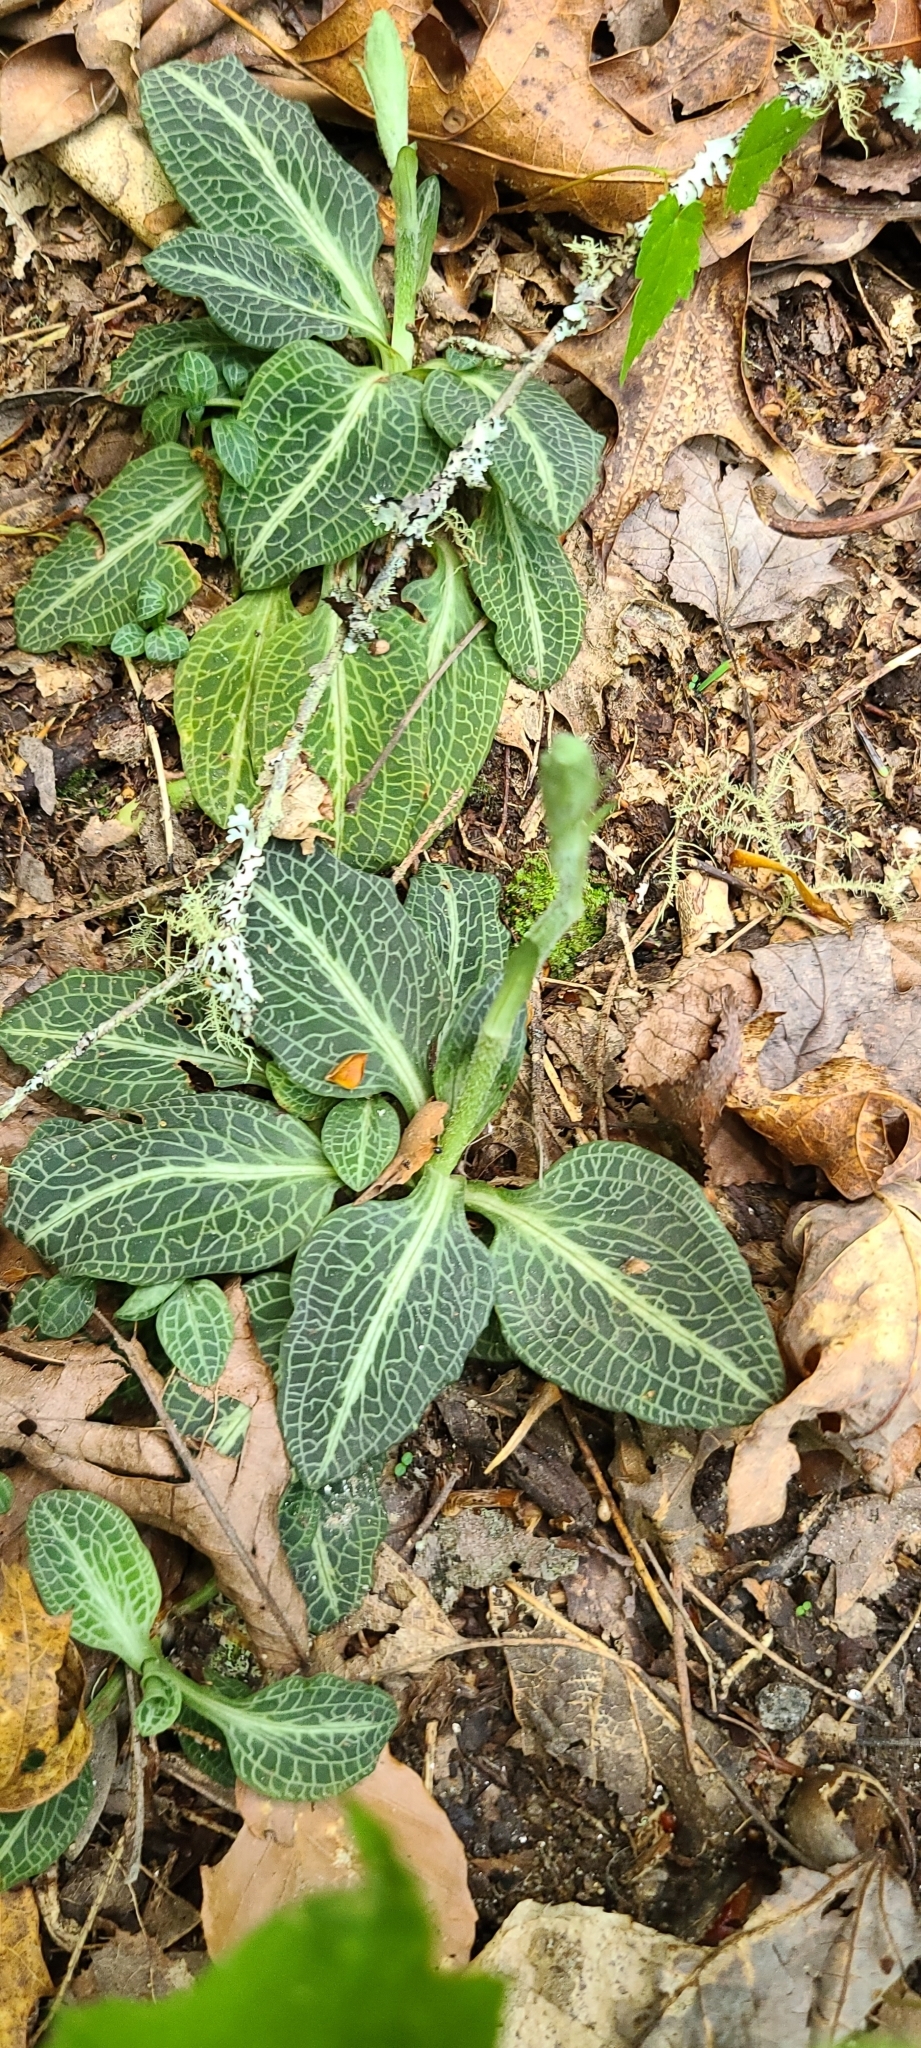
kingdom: Plantae
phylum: Tracheophyta
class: Liliopsida
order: Asparagales
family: Orchidaceae
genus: Goodyera
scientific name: Goodyera pubescens
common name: Downy rattlesnake-plantain
